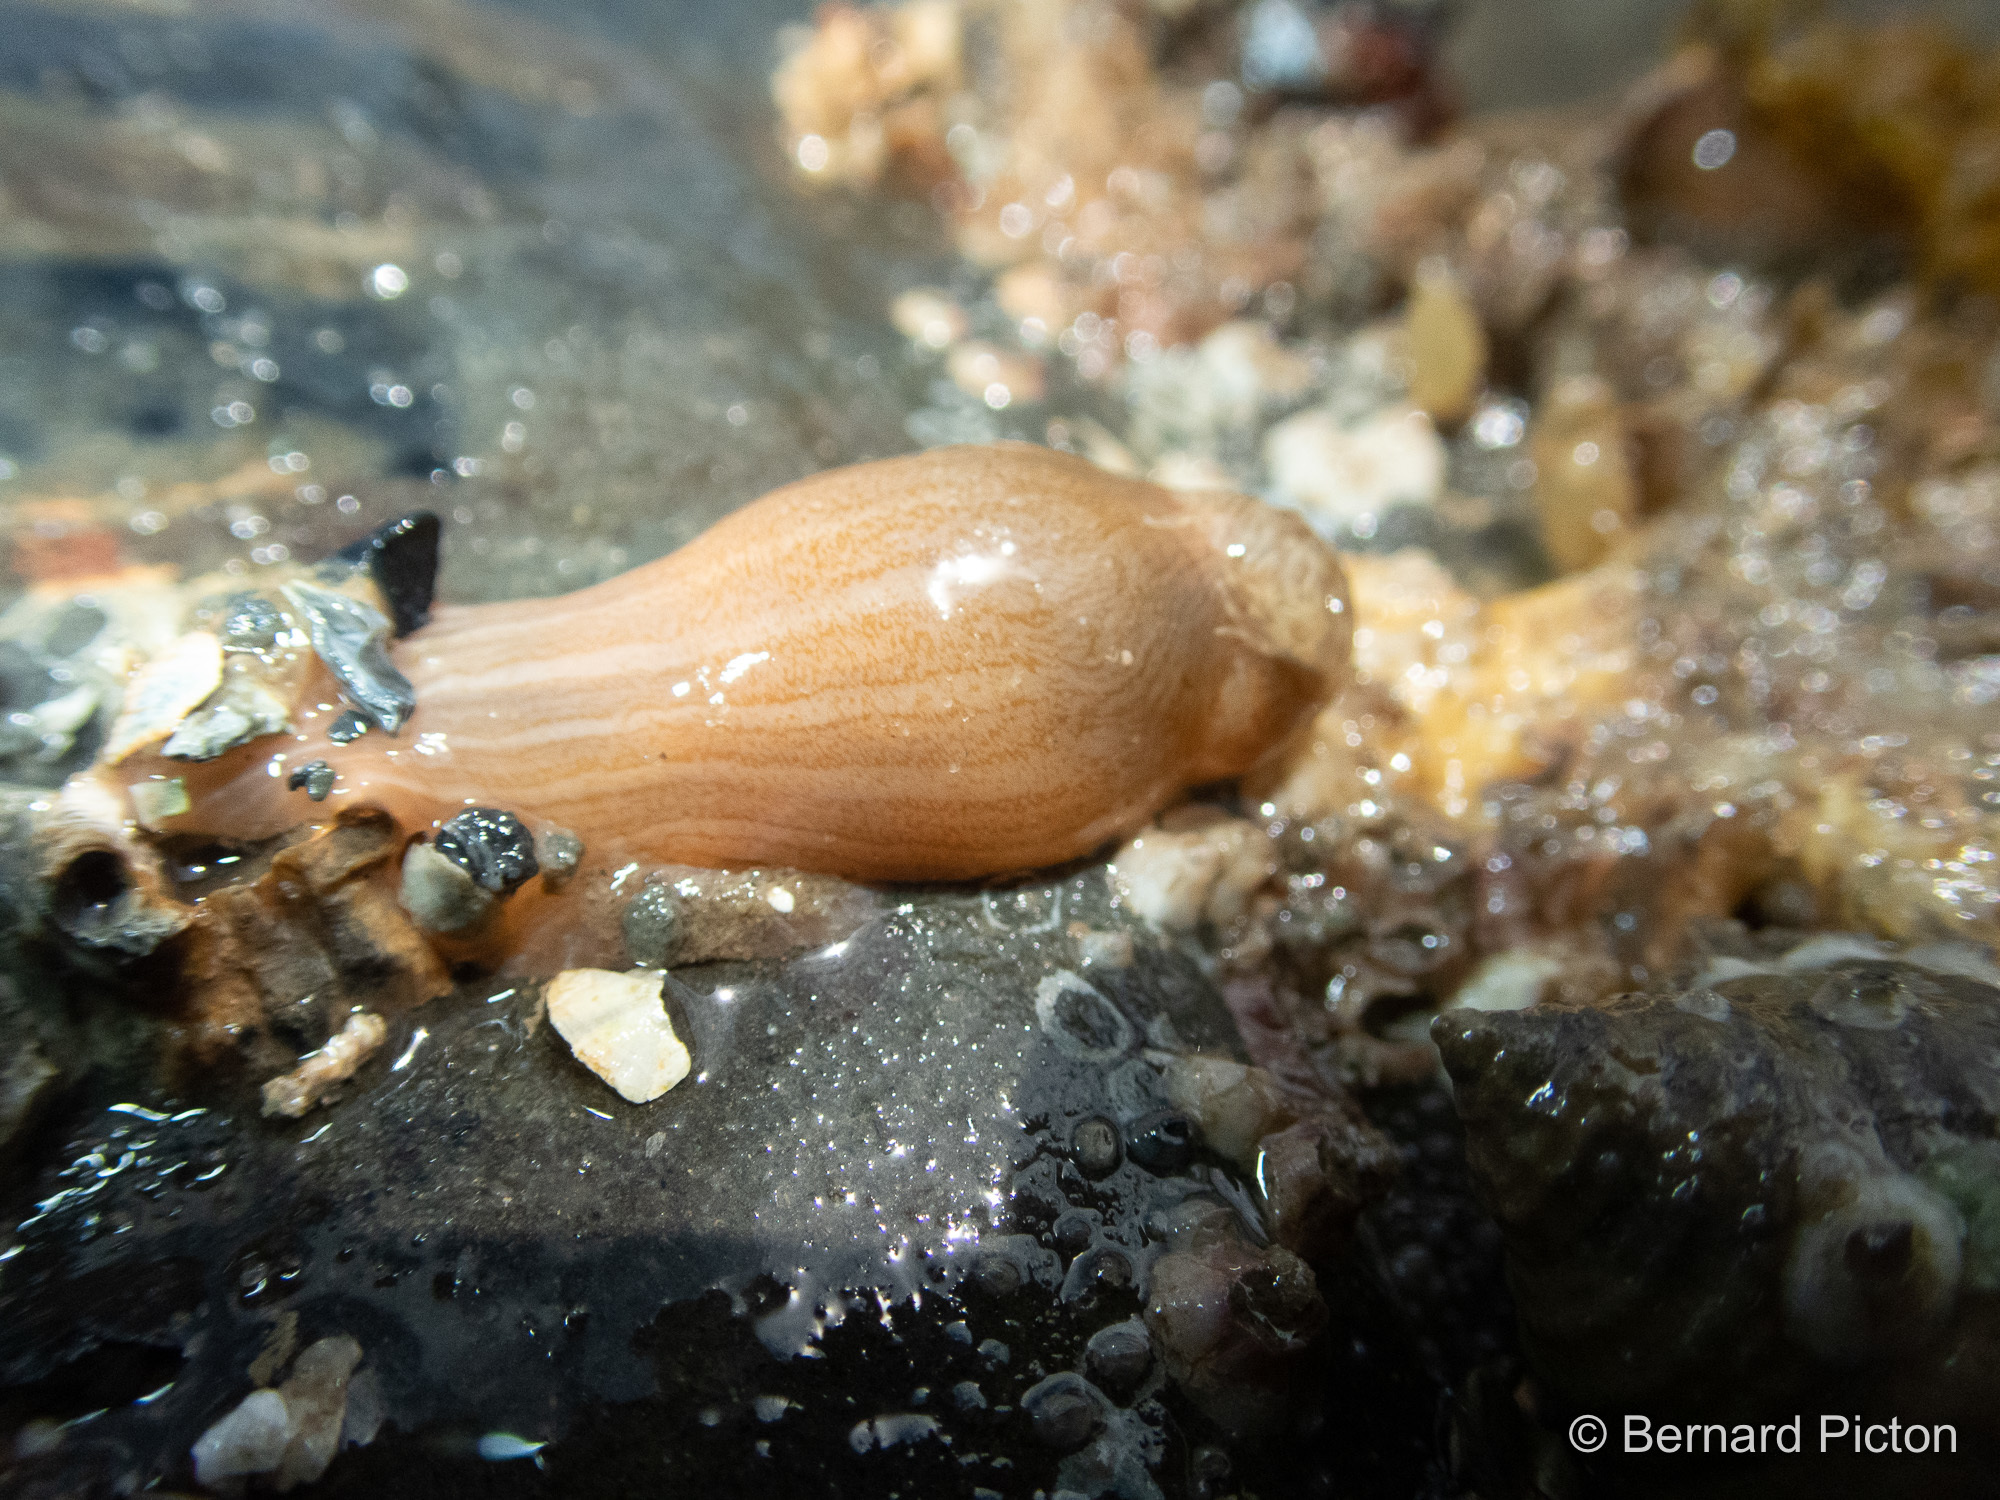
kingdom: Animalia
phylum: Cnidaria
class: Anthozoa
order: Actiniaria
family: Sagartiidae
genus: Sagartia
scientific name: Sagartia undata
